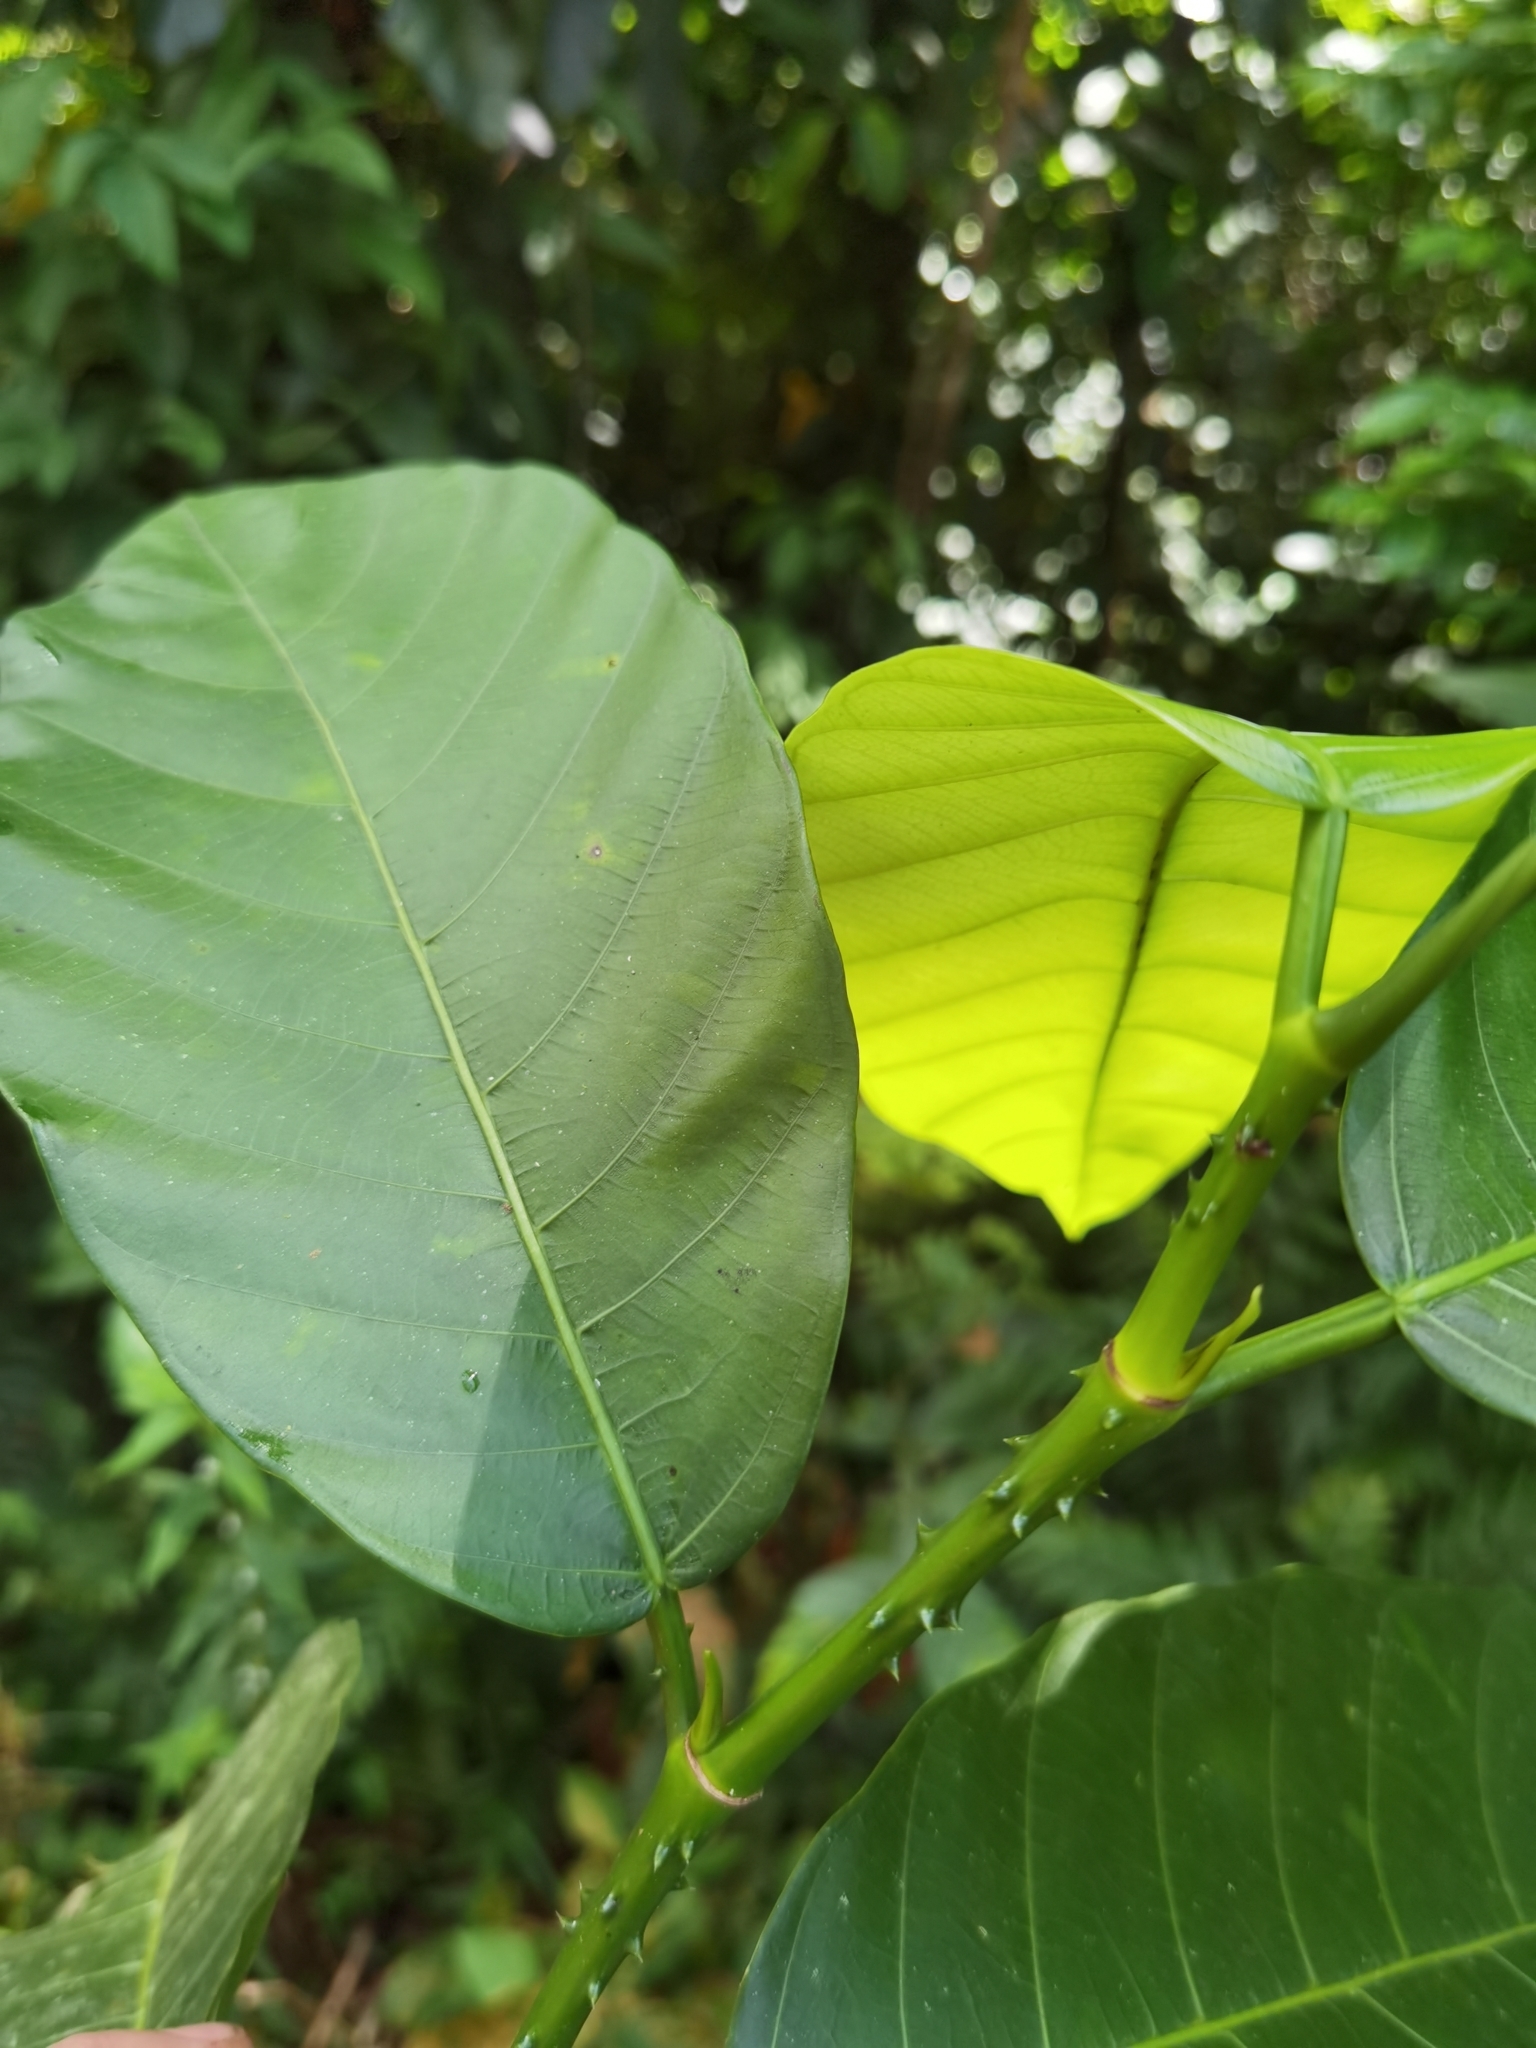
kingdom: Plantae
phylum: Tracheophyta
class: Magnoliopsida
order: Rosales
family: Moraceae
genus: Poulsenia
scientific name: Poulsenia armata
